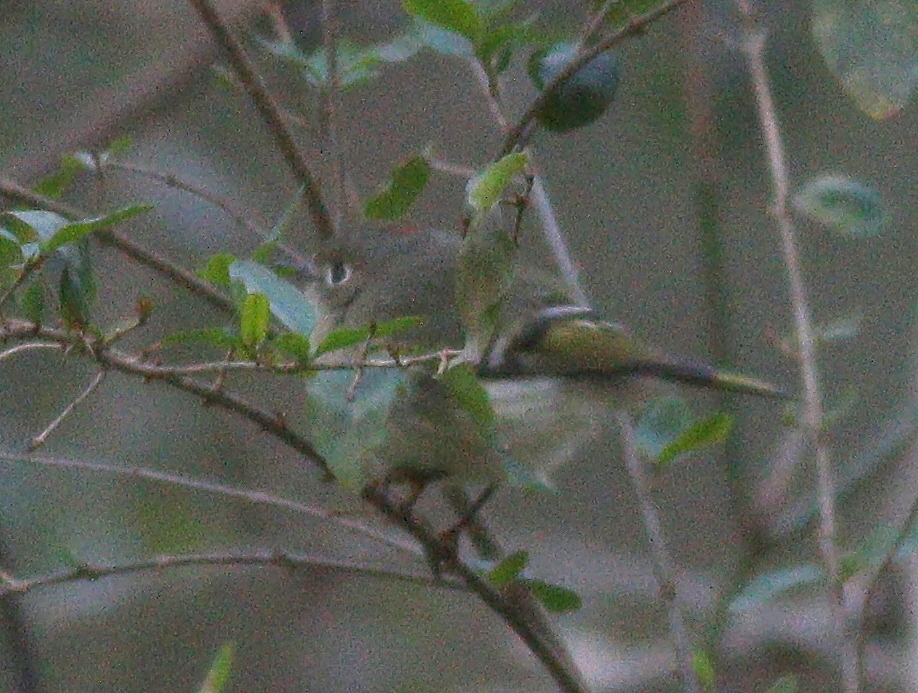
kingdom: Animalia
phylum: Chordata
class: Aves
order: Passeriformes
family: Regulidae
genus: Regulus
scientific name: Regulus calendula
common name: Ruby-crowned kinglet
